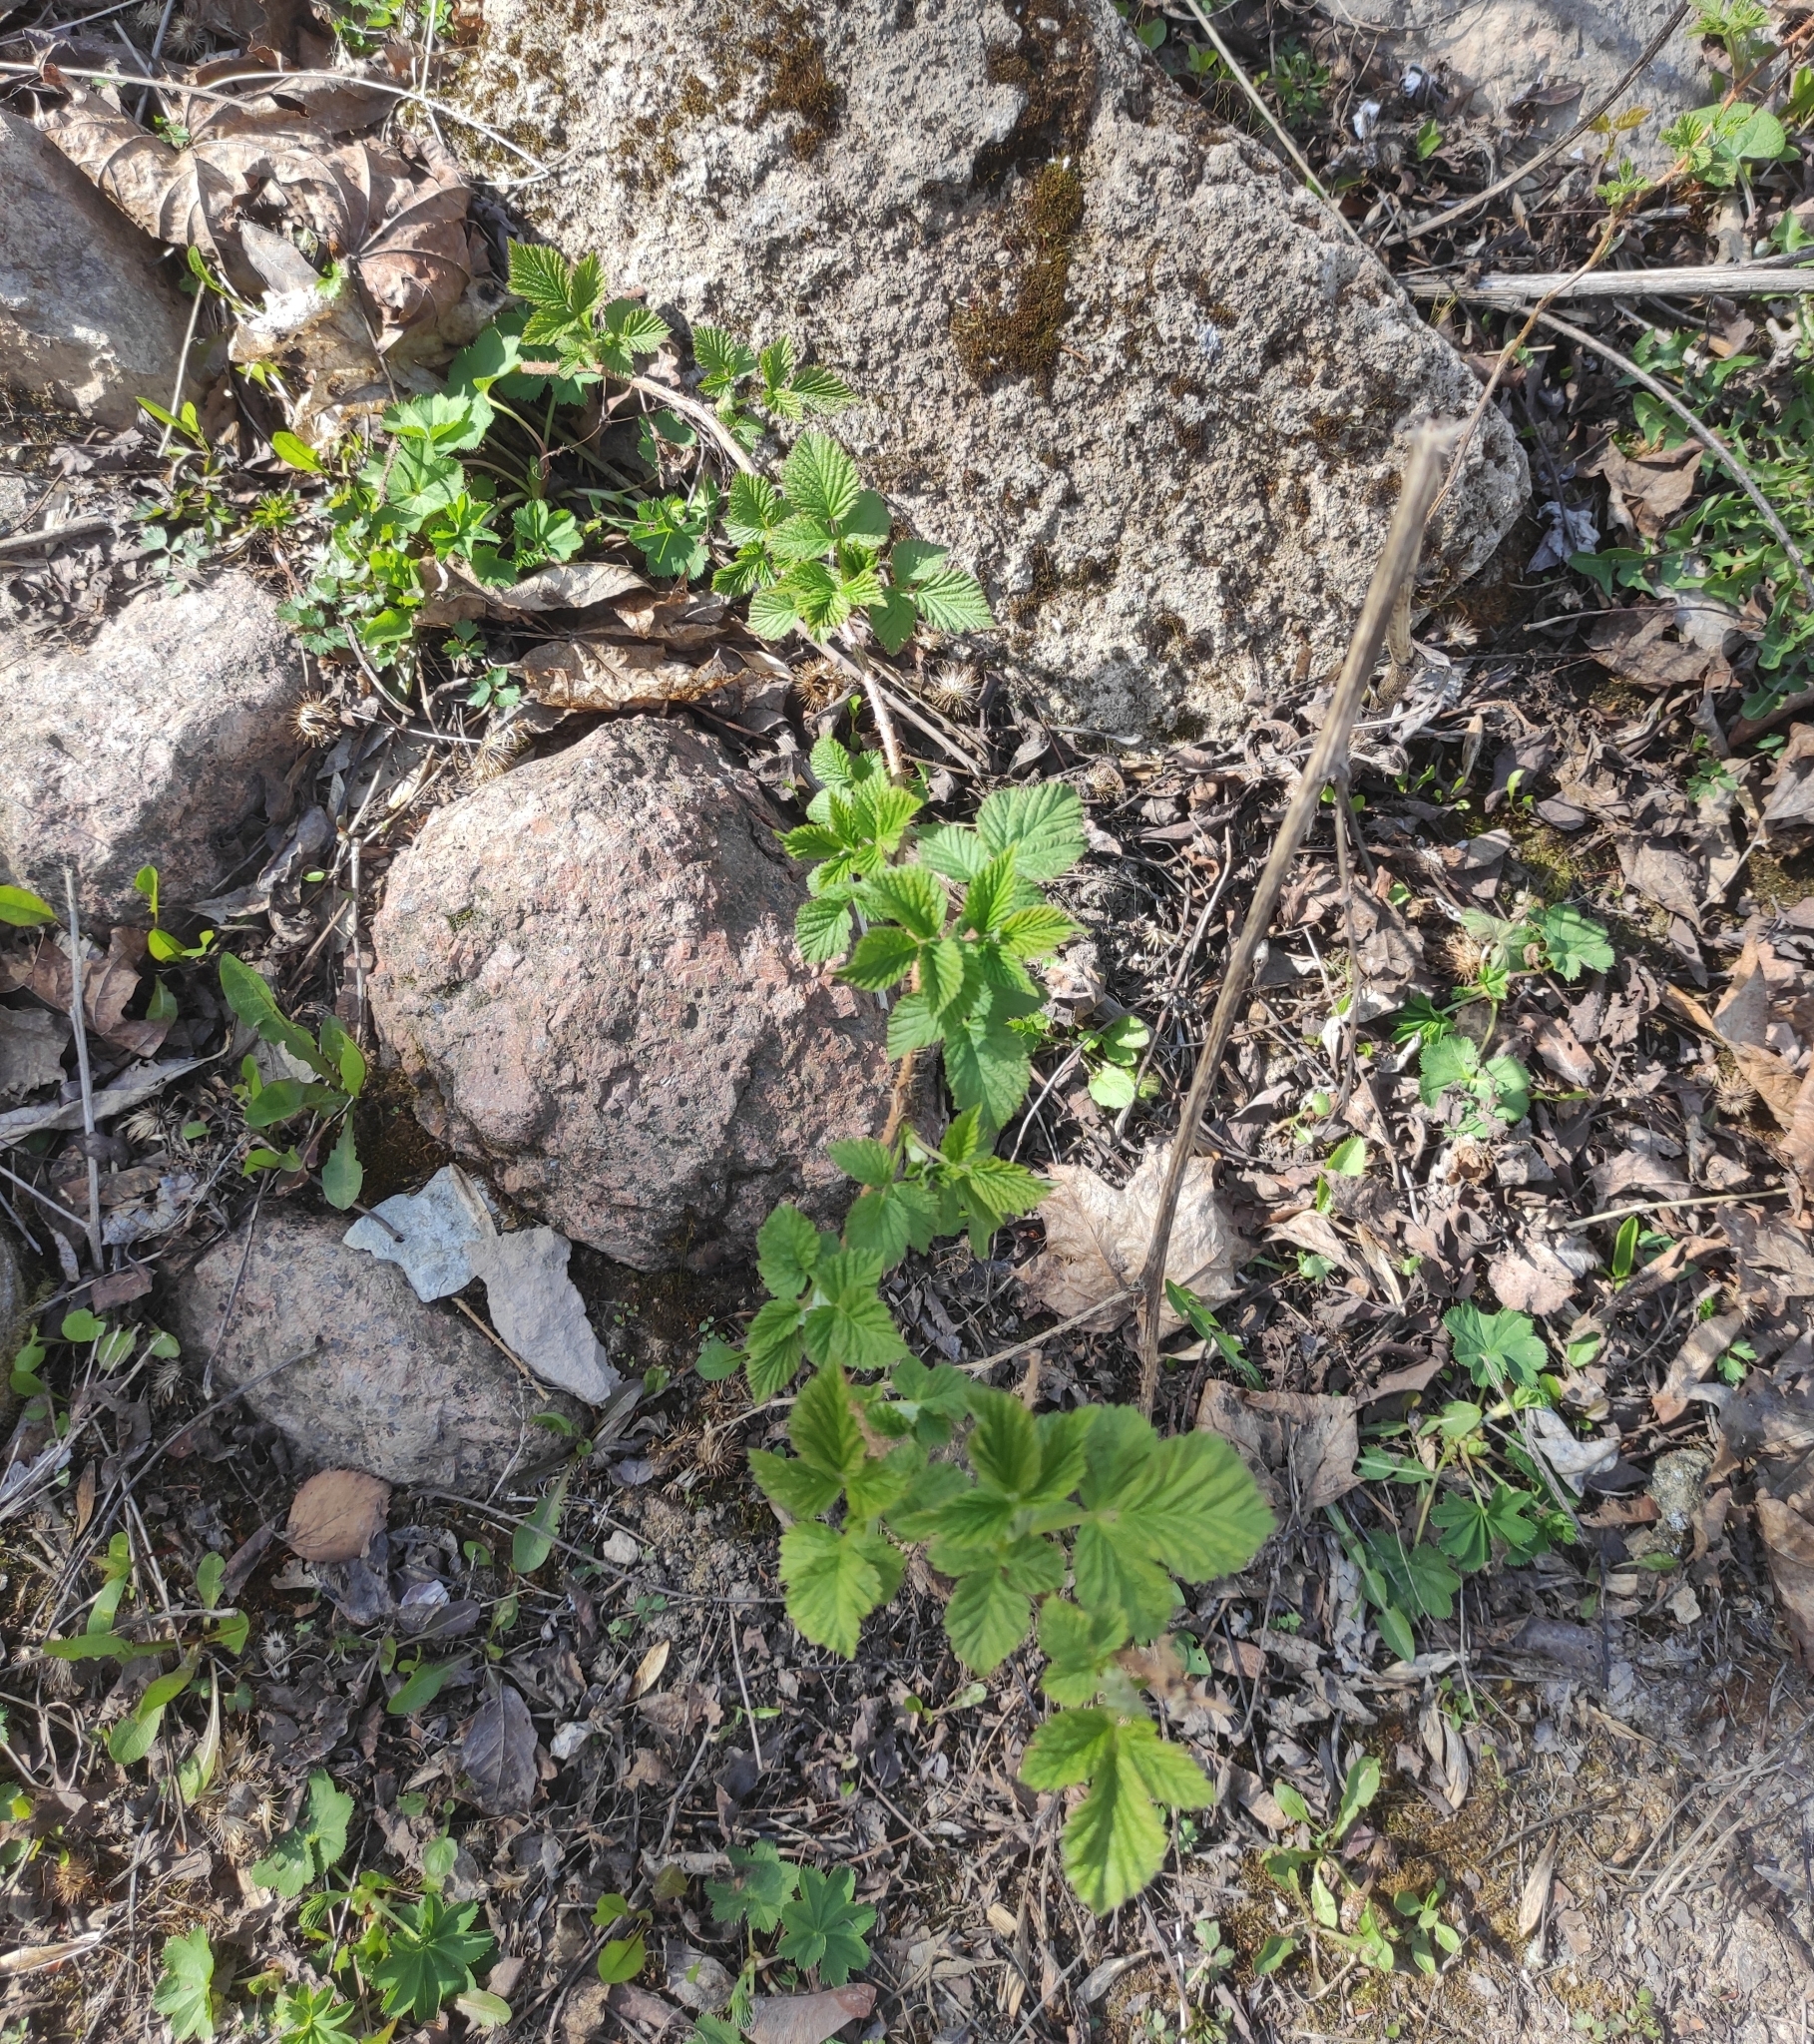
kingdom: Plantae
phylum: Tracheophyta
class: Magnoliopsida
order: Rosales
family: Rosaceae
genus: Rubus
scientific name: Rubus idaeus
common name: Raspberry
